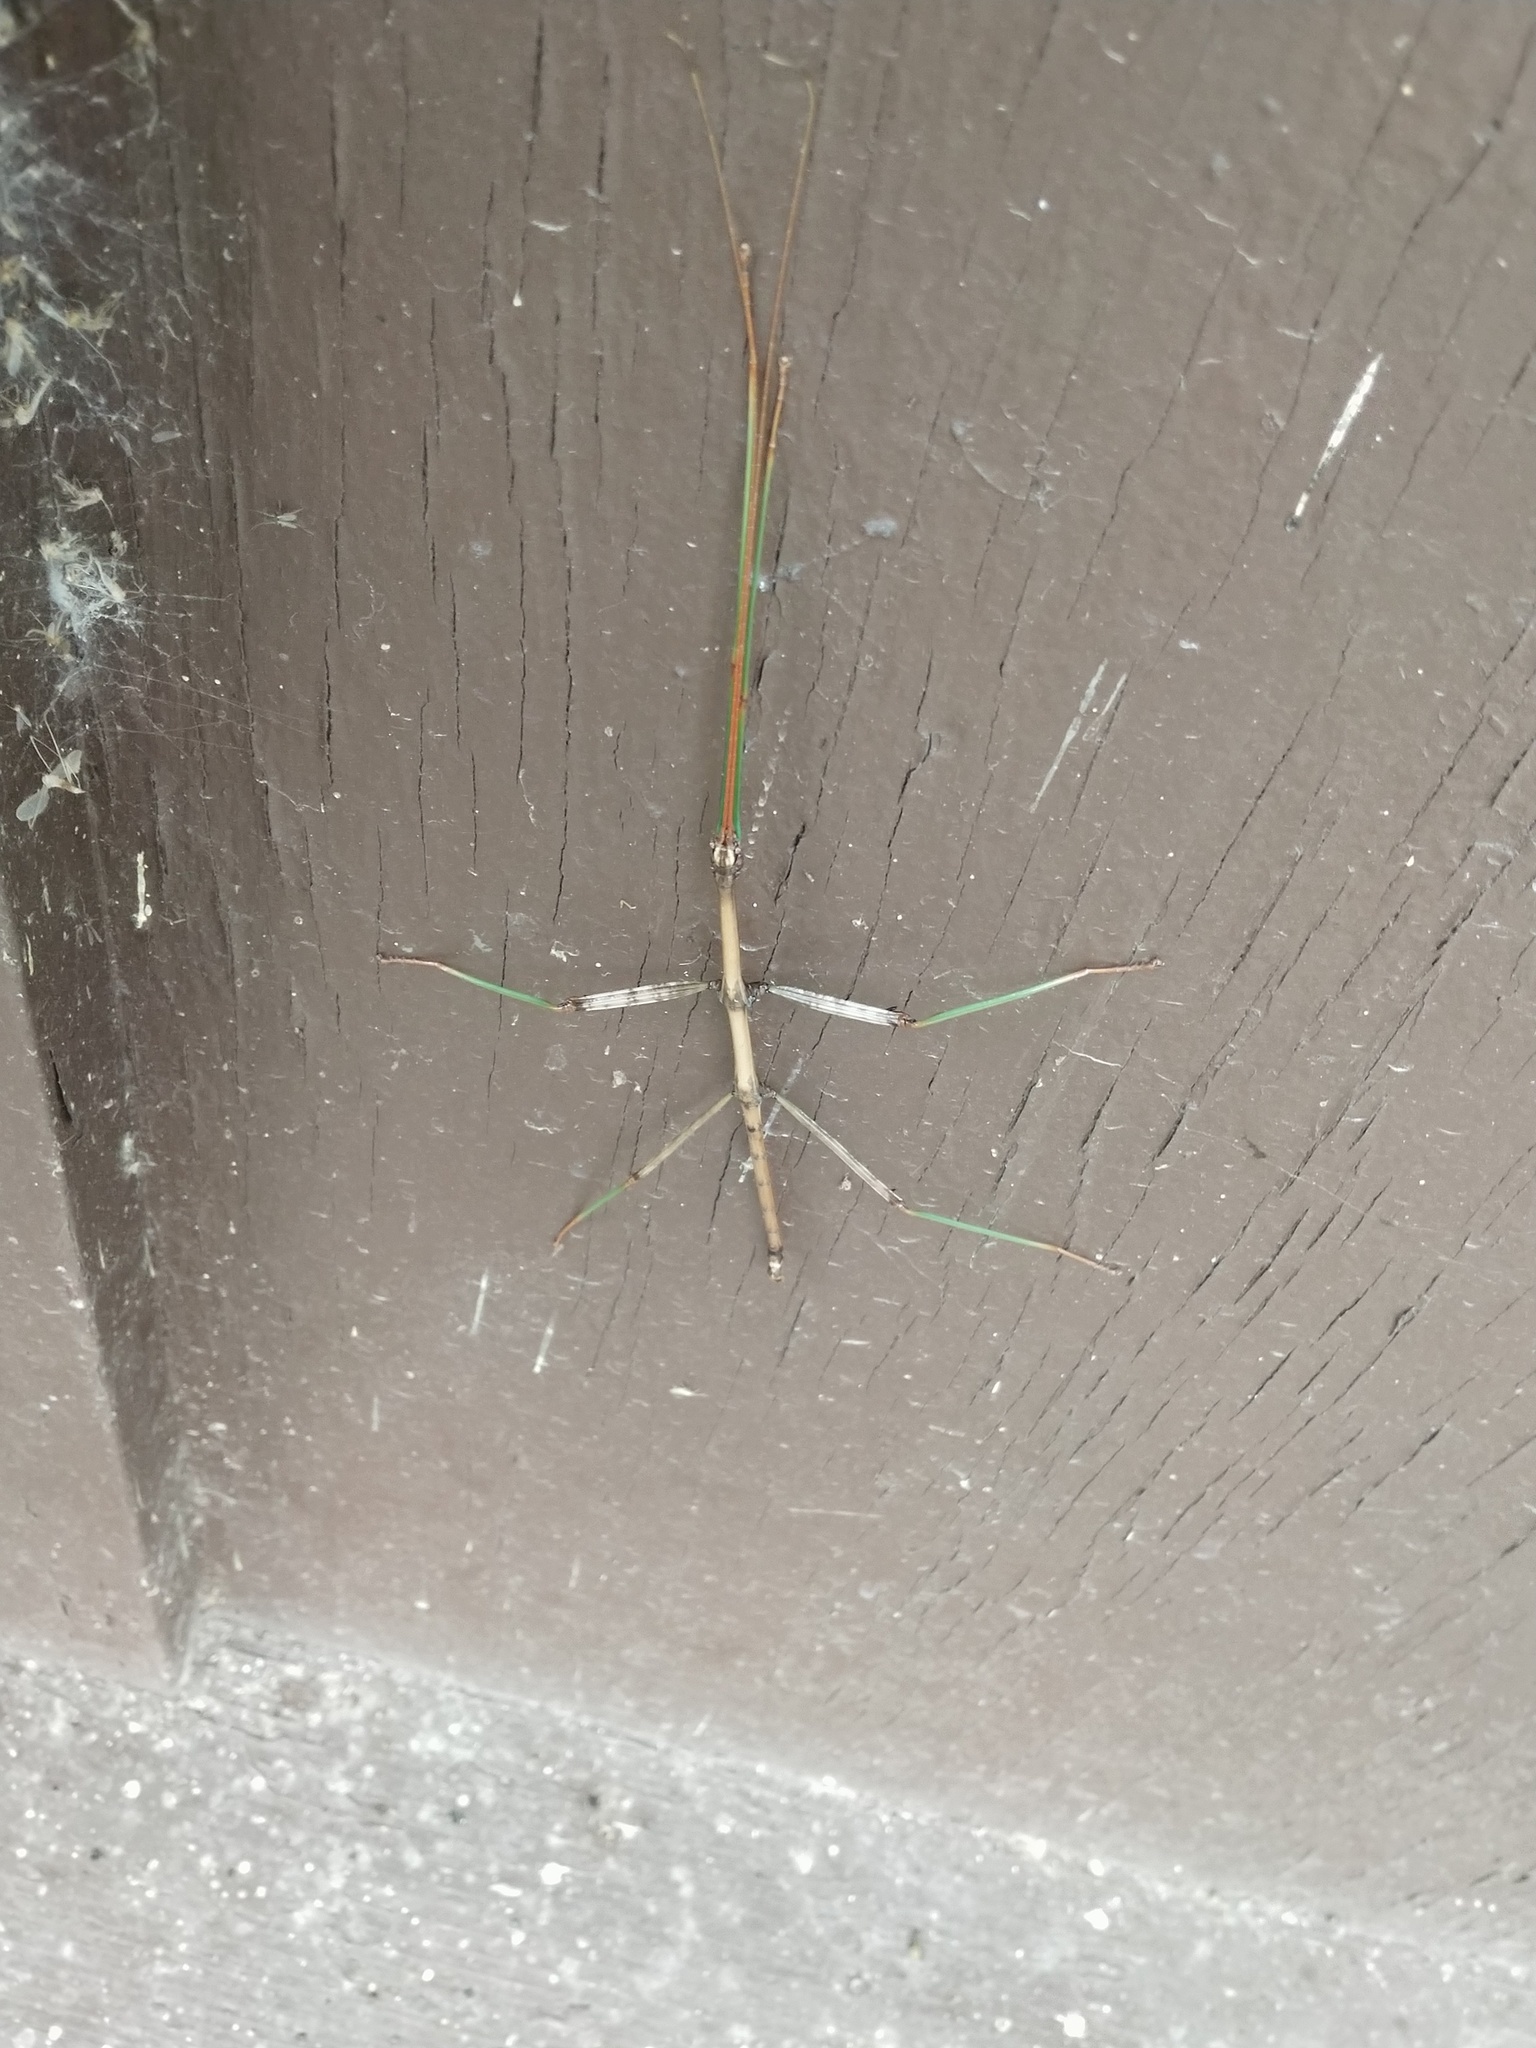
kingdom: Animalia
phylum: Arthropoda
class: Insecta
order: Phasmida
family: Diapheromeridae
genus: Diapheromera
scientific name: Diapheromera femorata
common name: Common american walkingstick
